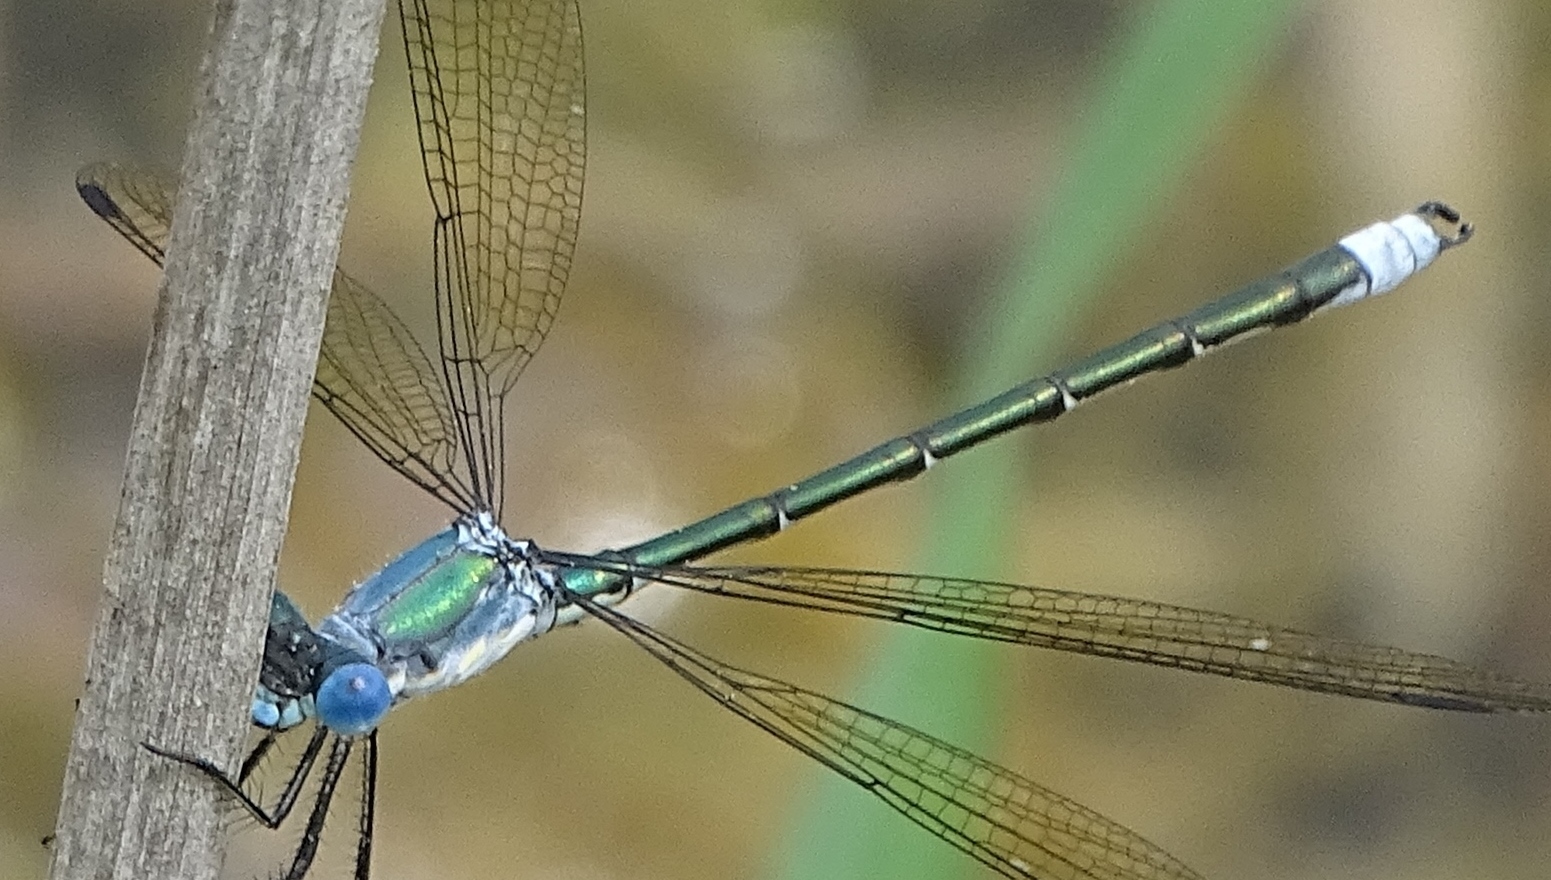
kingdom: Animalia
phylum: Arthropoda
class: Insecta
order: Odonata
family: Lestidae
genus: Lestes
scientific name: Lestes eurinus
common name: Amber-winged spreadwing
